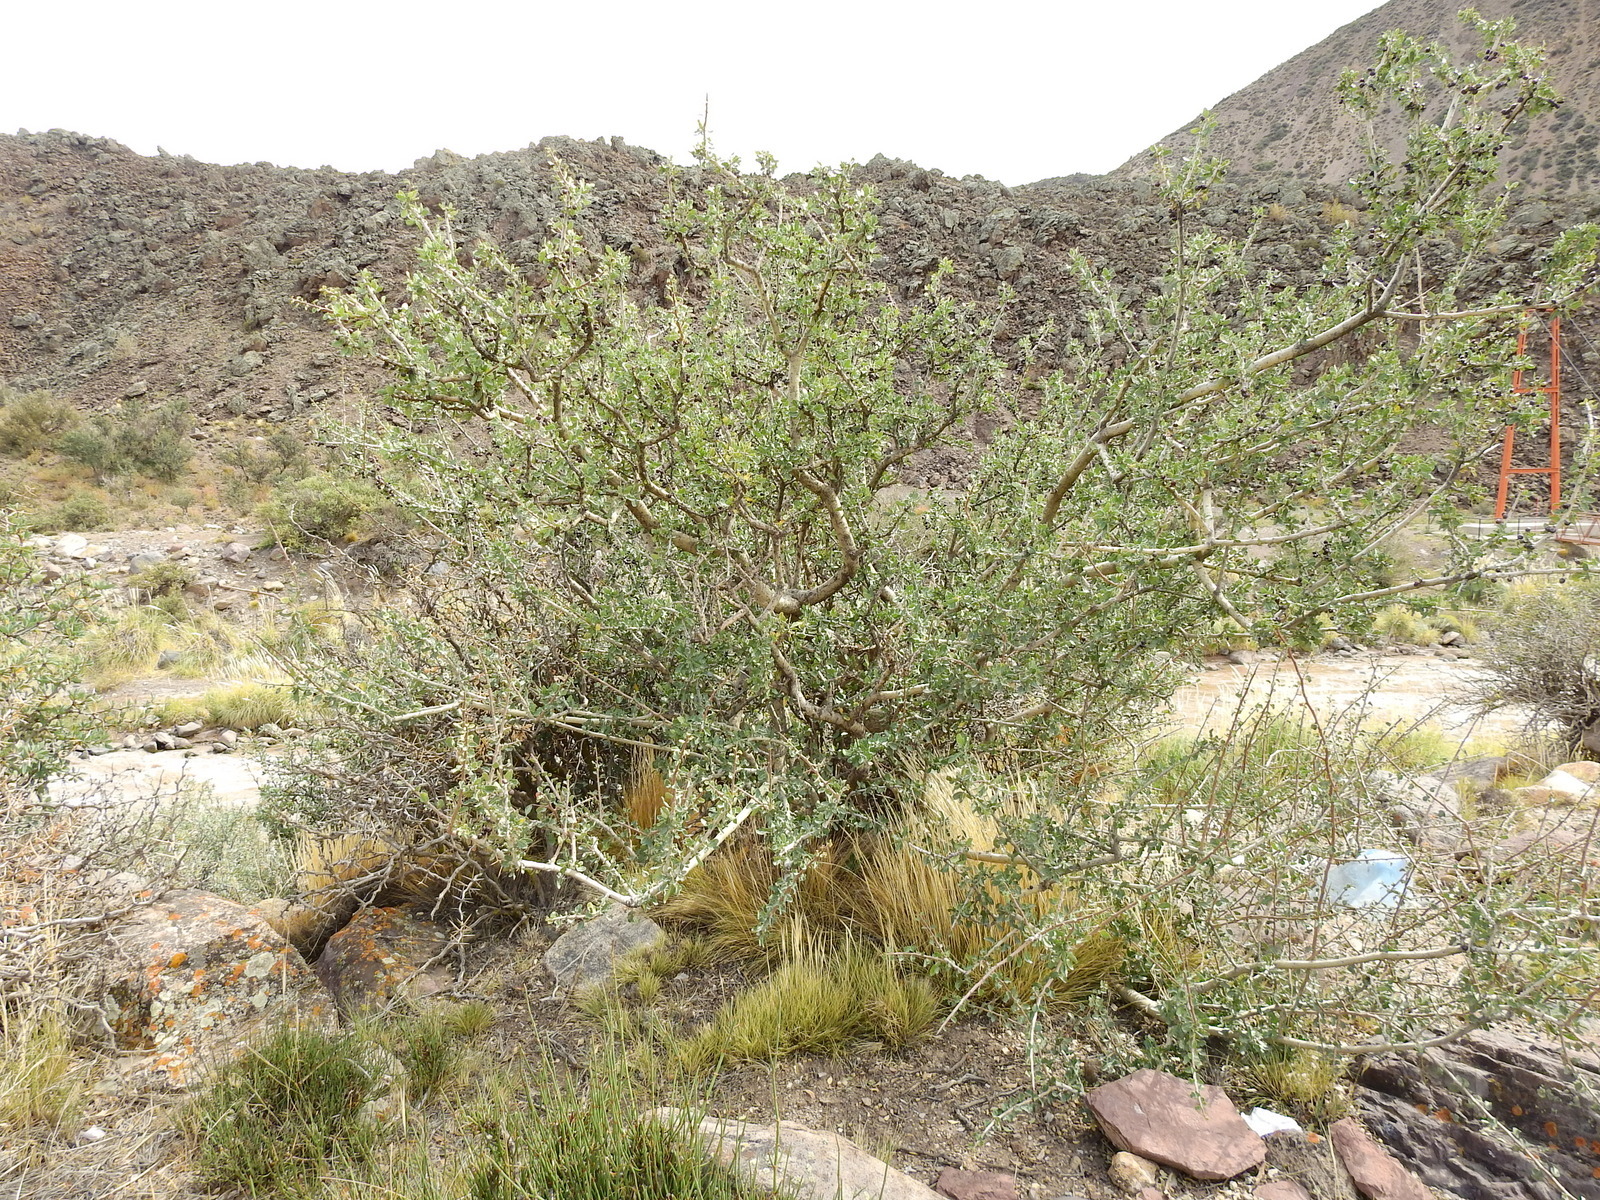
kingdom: Plantae
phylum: Tracheophyta
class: Magnoliopsida
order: Sapindales
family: Anacardiaceae
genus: Schinus
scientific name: Schinus odonellii
